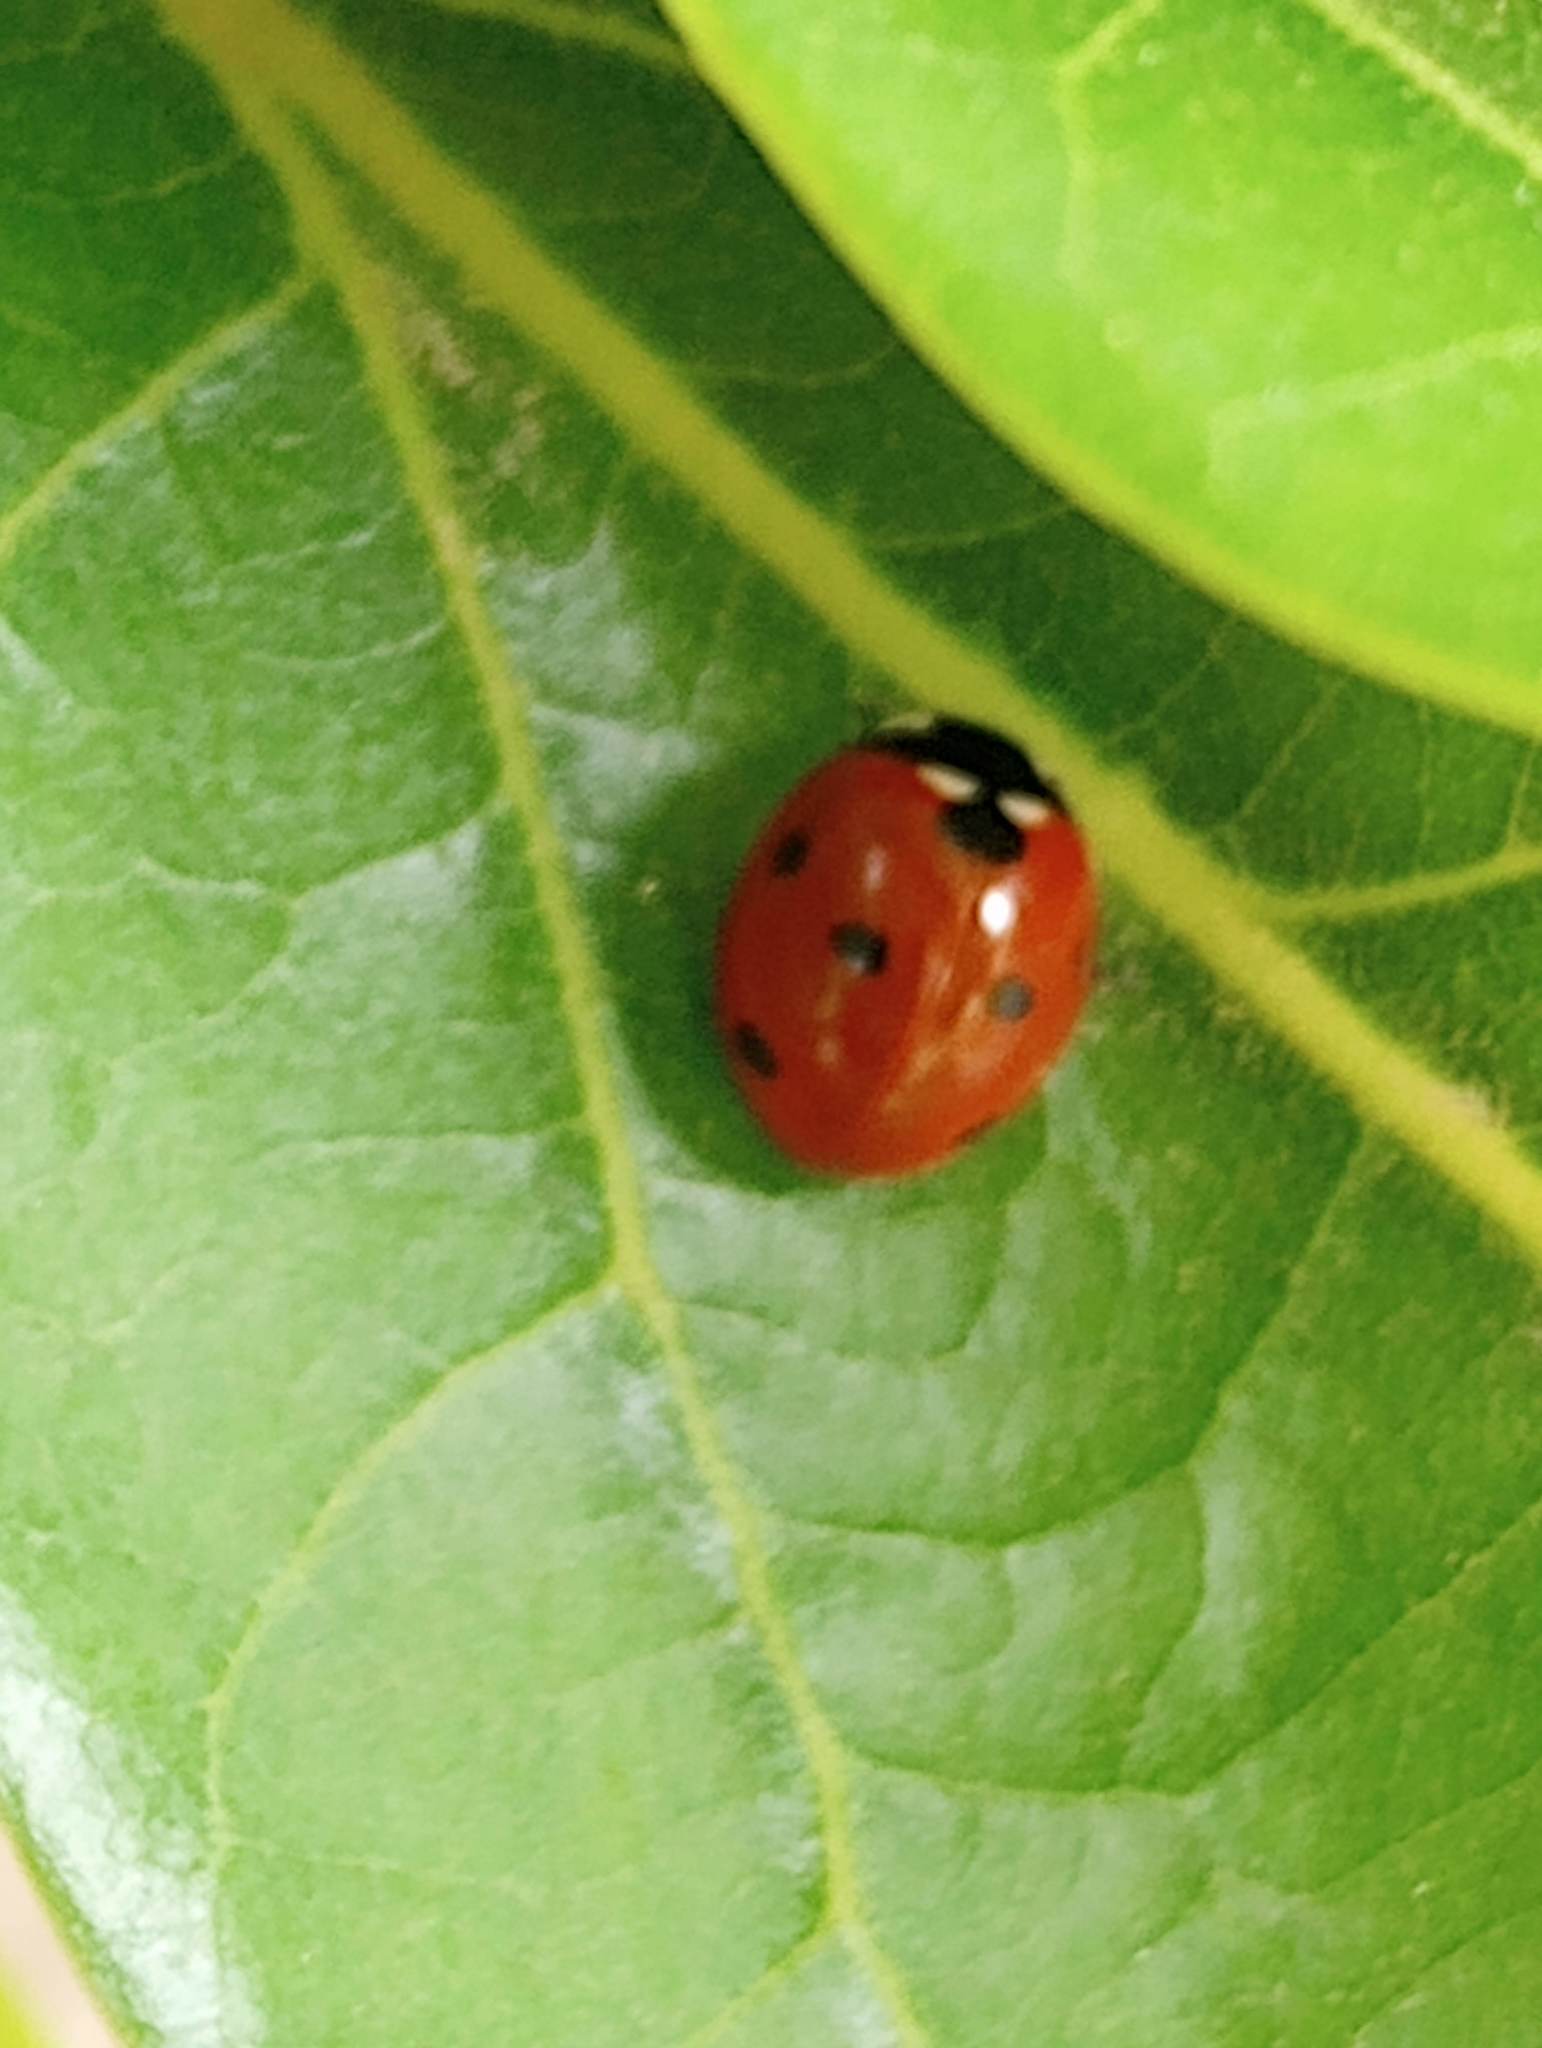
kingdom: Animalia
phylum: Arthropoda
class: Insecta
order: Coleoptera
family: Coccinellidae
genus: Coccinella
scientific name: Coccinella septempunctata
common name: Sevenspotted lady beetle
